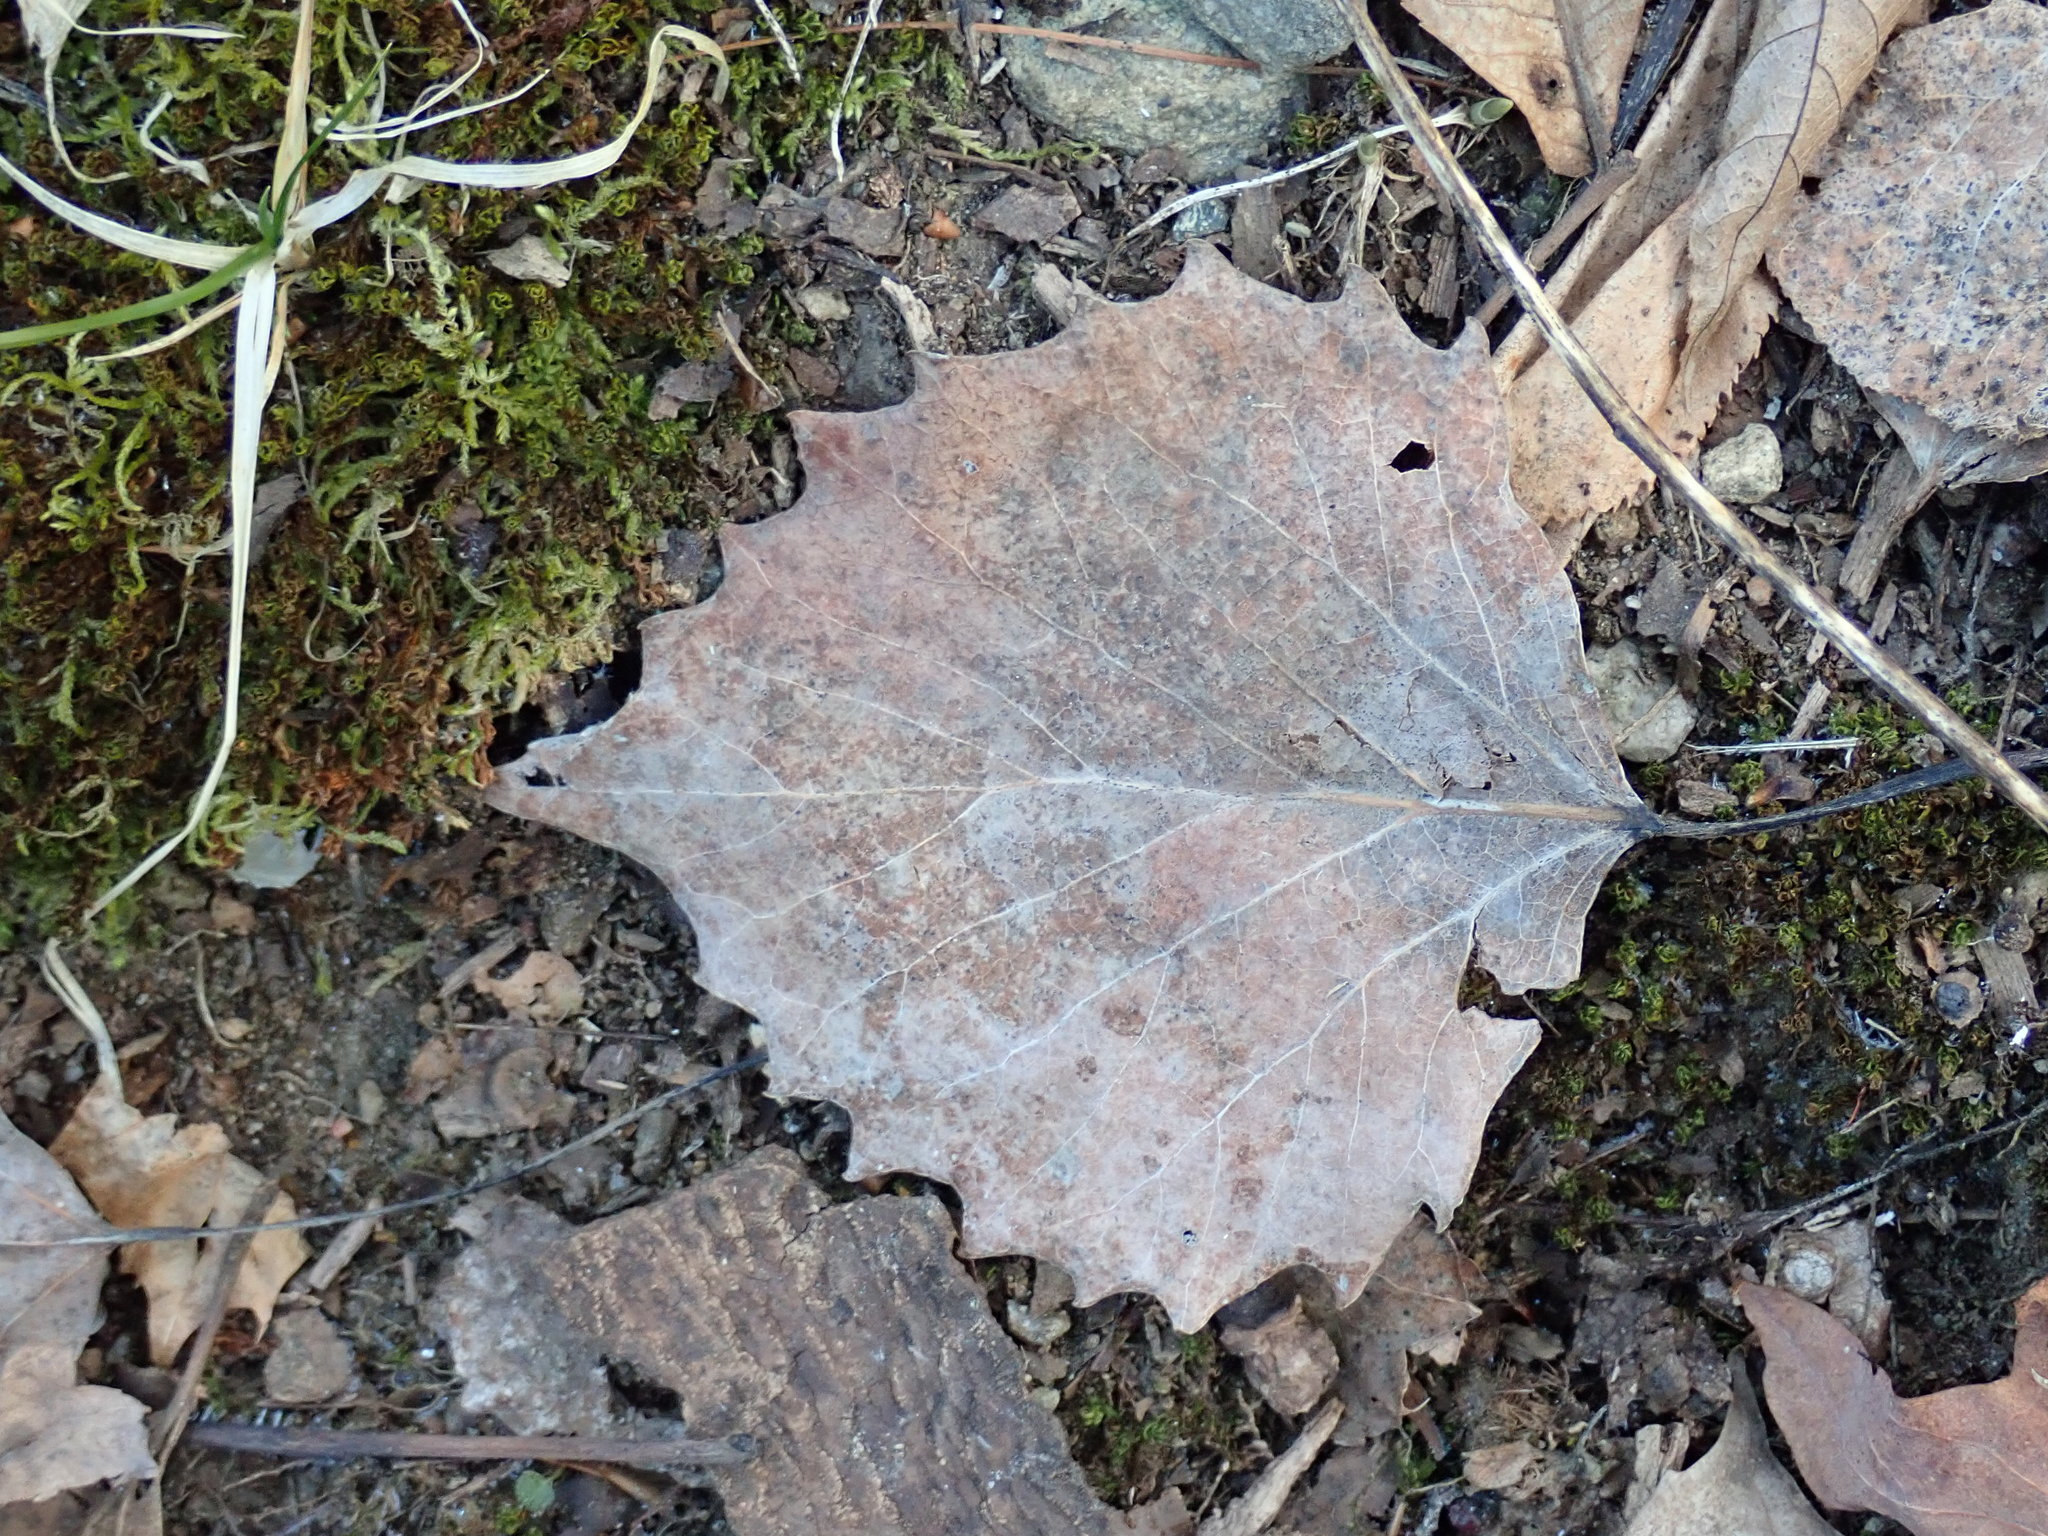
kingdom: Plantae
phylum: Tracheophyta
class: Magnoliopsida
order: Malpighiales
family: Salicaceae
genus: Populus
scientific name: Populus grandidentata
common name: Bigtooth aspen
